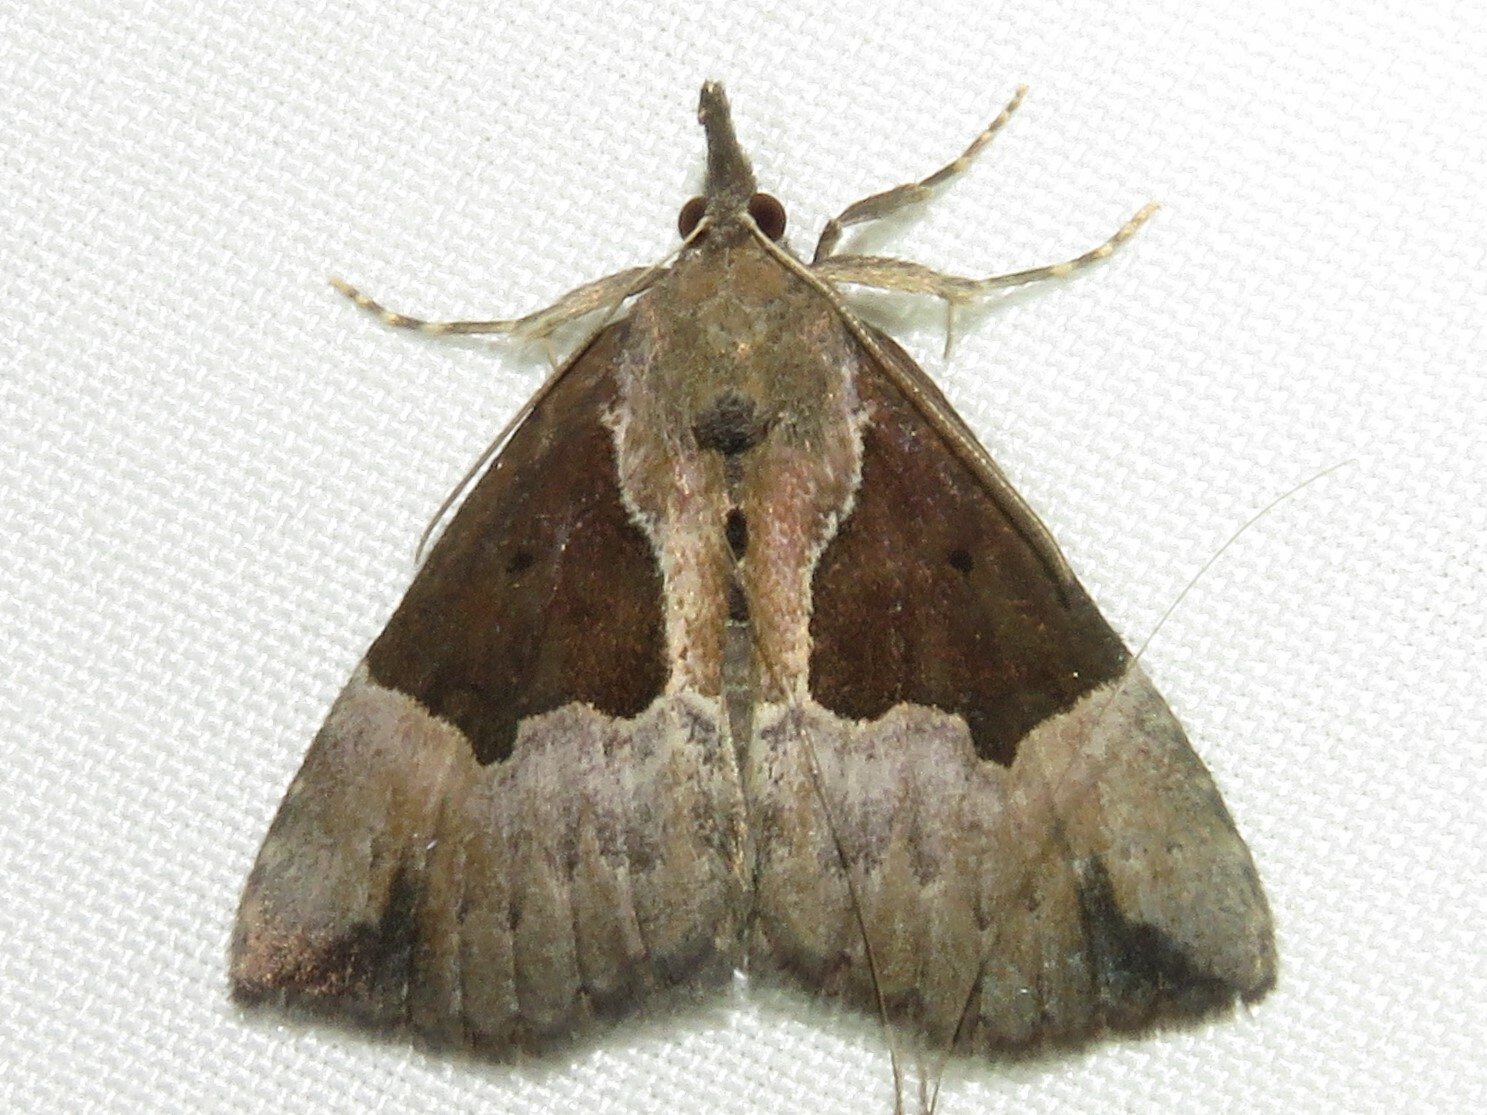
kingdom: Animalia
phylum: Arthropoda
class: Insecta
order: Lepidoptera
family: Erebidae
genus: Hypena
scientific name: Hypena bijugalis
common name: Dimorphic bomolocha moth
